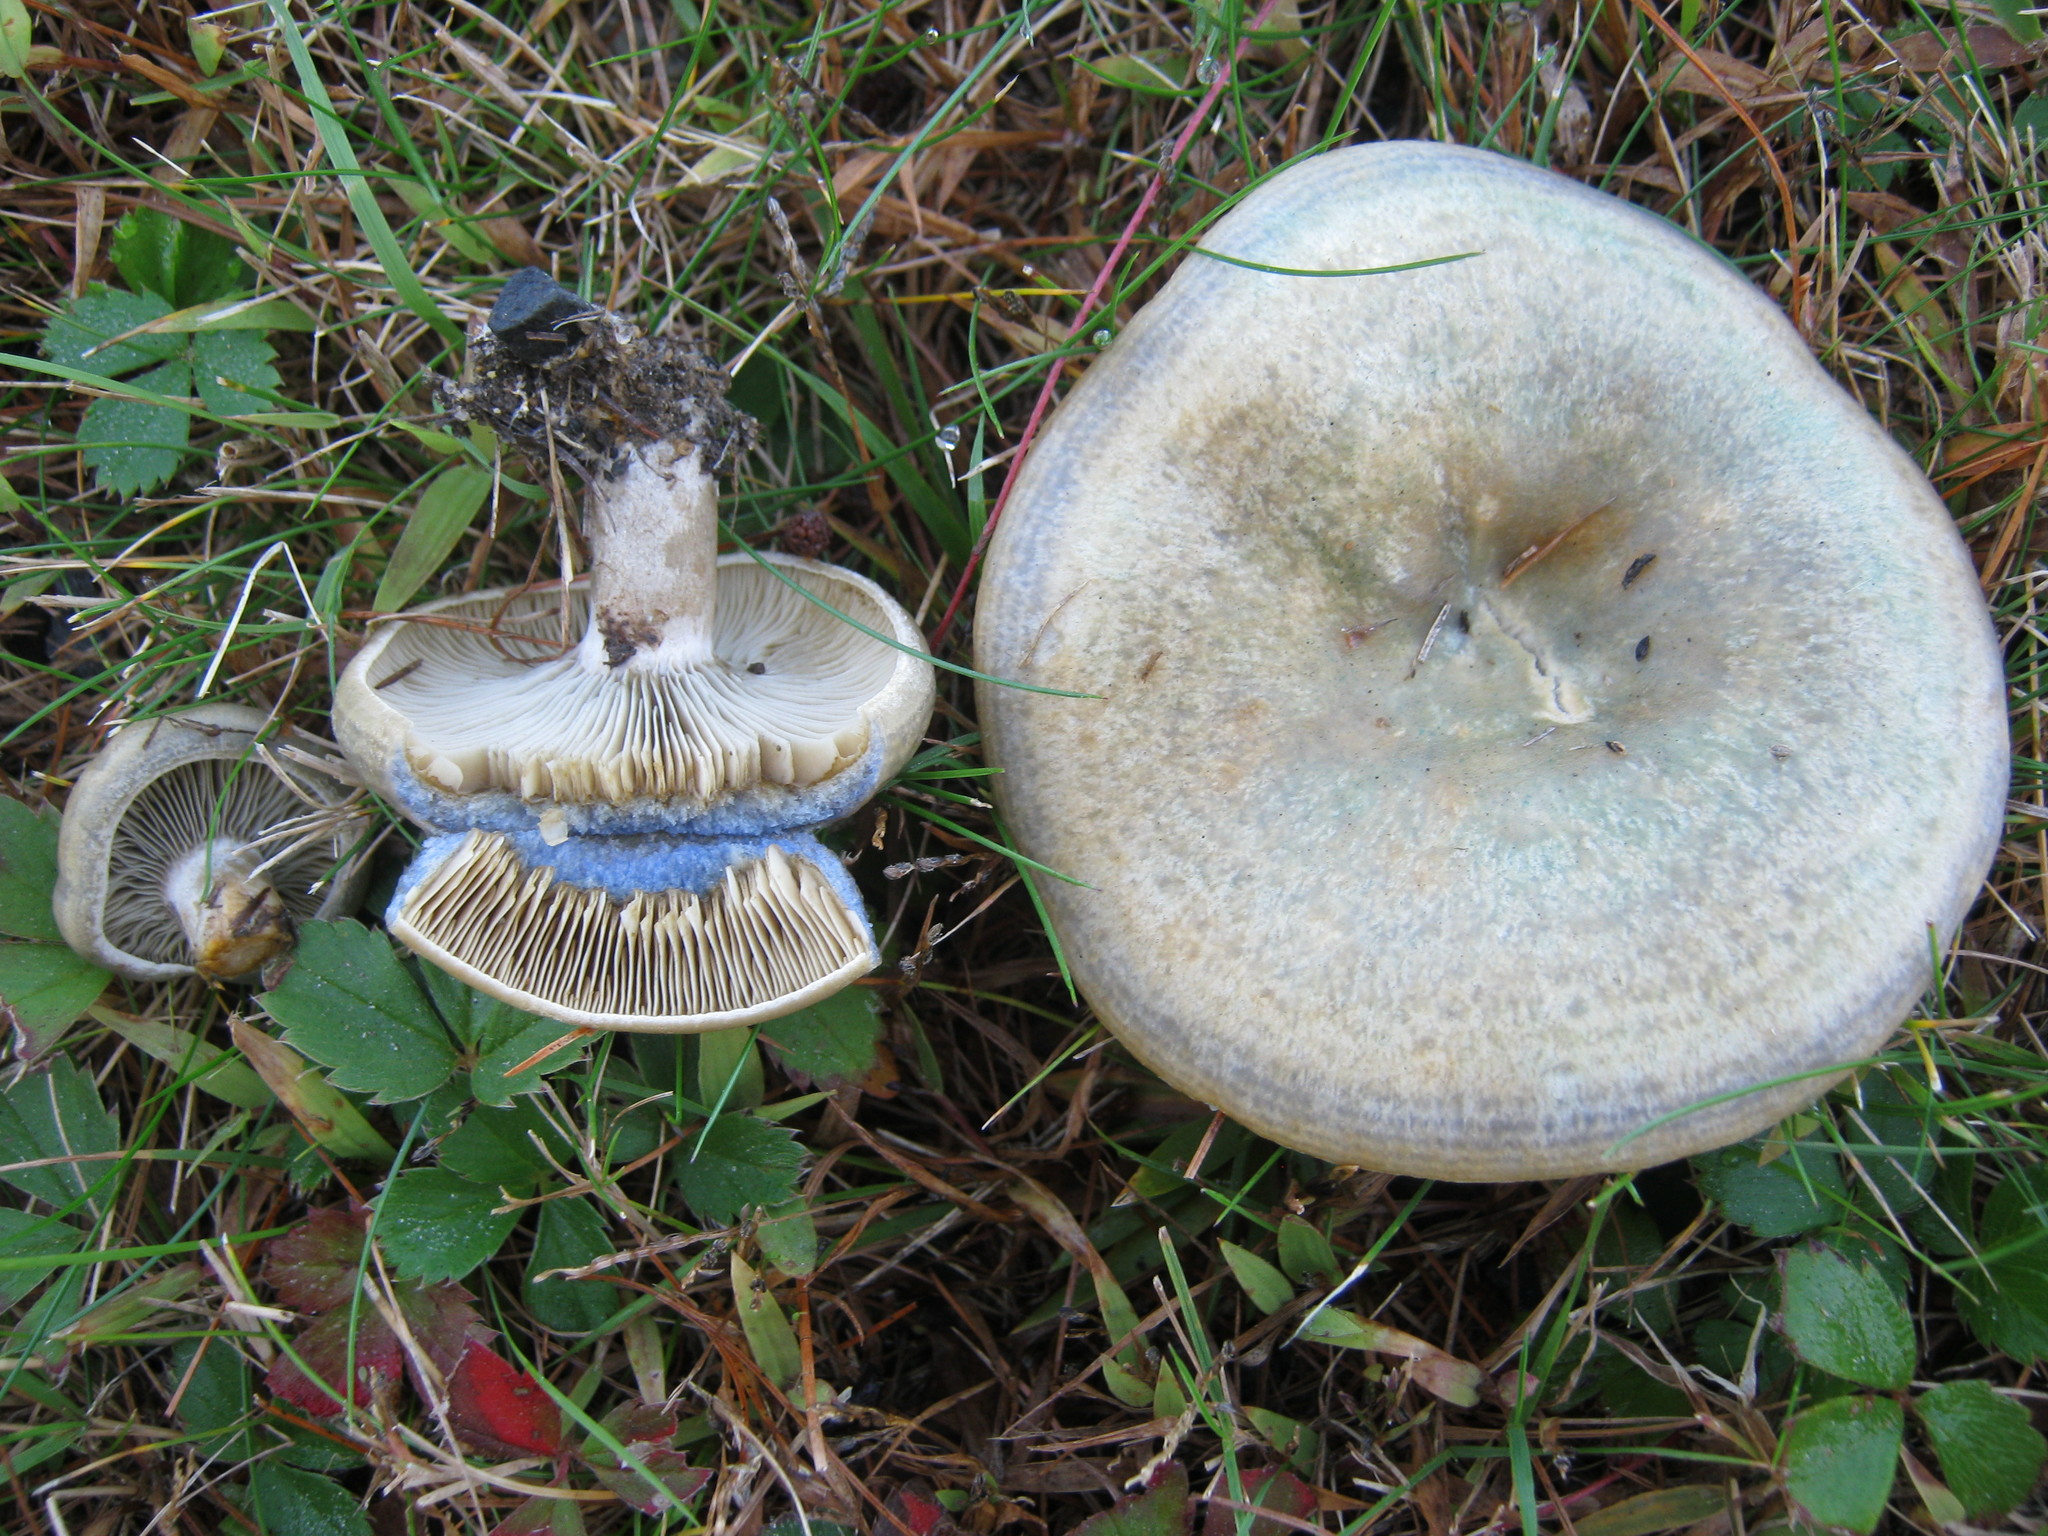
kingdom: Fungi
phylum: Basidiomycota
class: Agaricomycetes
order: Russulales
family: Russulaceae
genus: Lactarius
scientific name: Lactarius chelidonium
